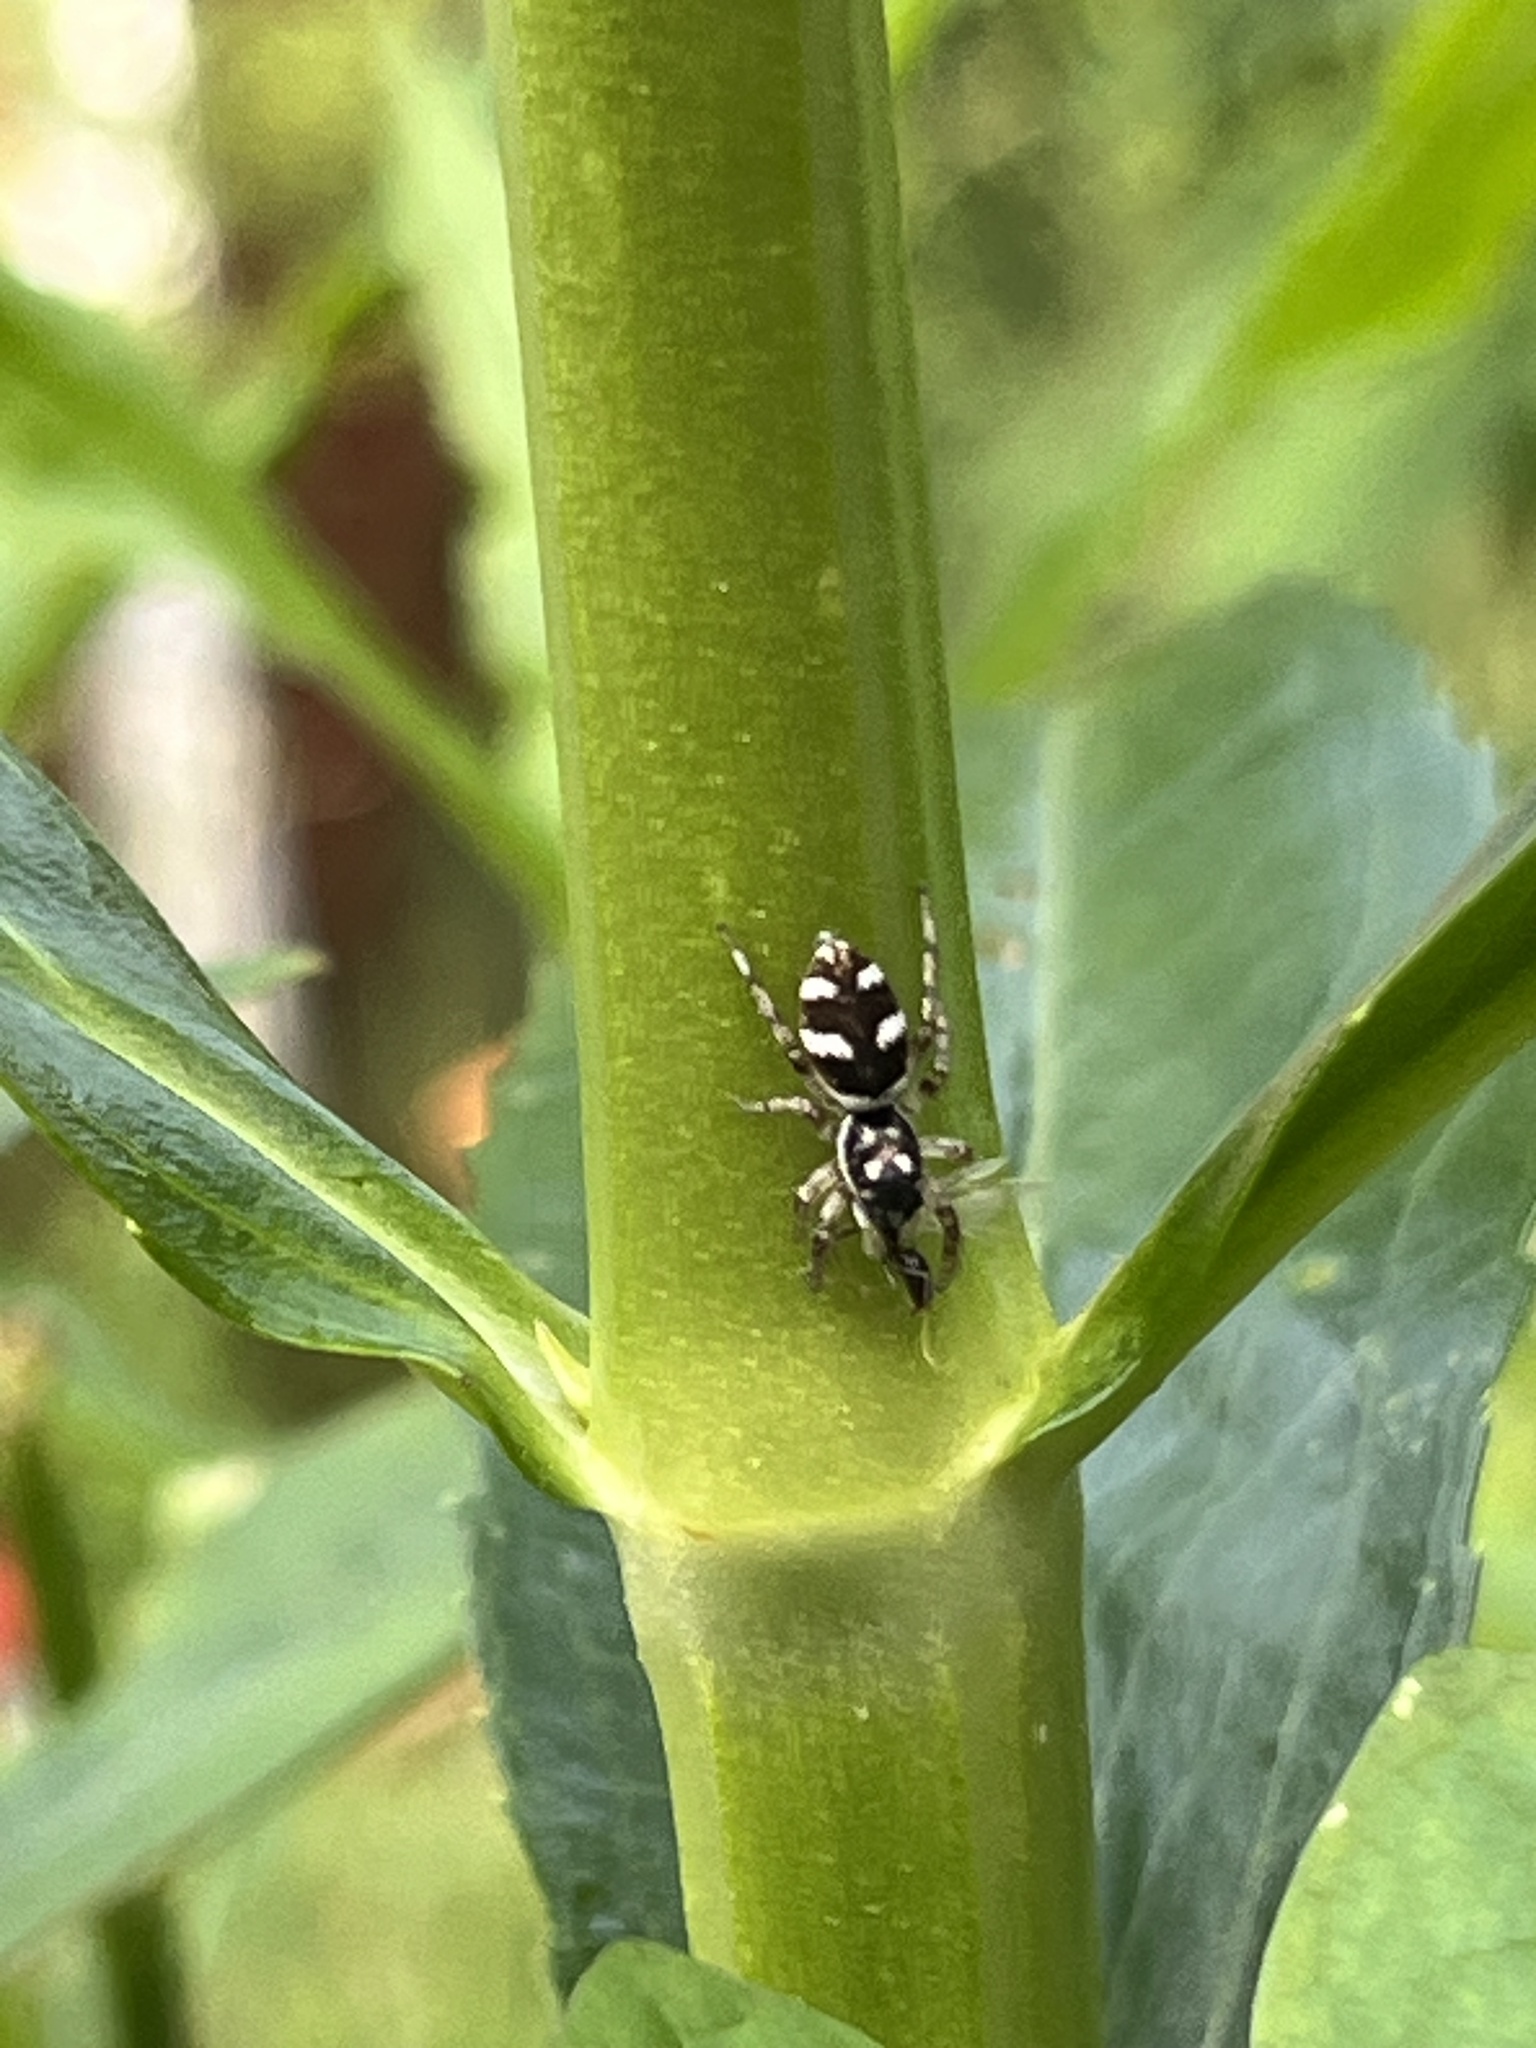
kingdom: Animalia
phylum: Arthropoda
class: Arachnida
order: Araneae
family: Salticidae
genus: Salticus
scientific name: Salticus scenicus
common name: Zebra jumper
